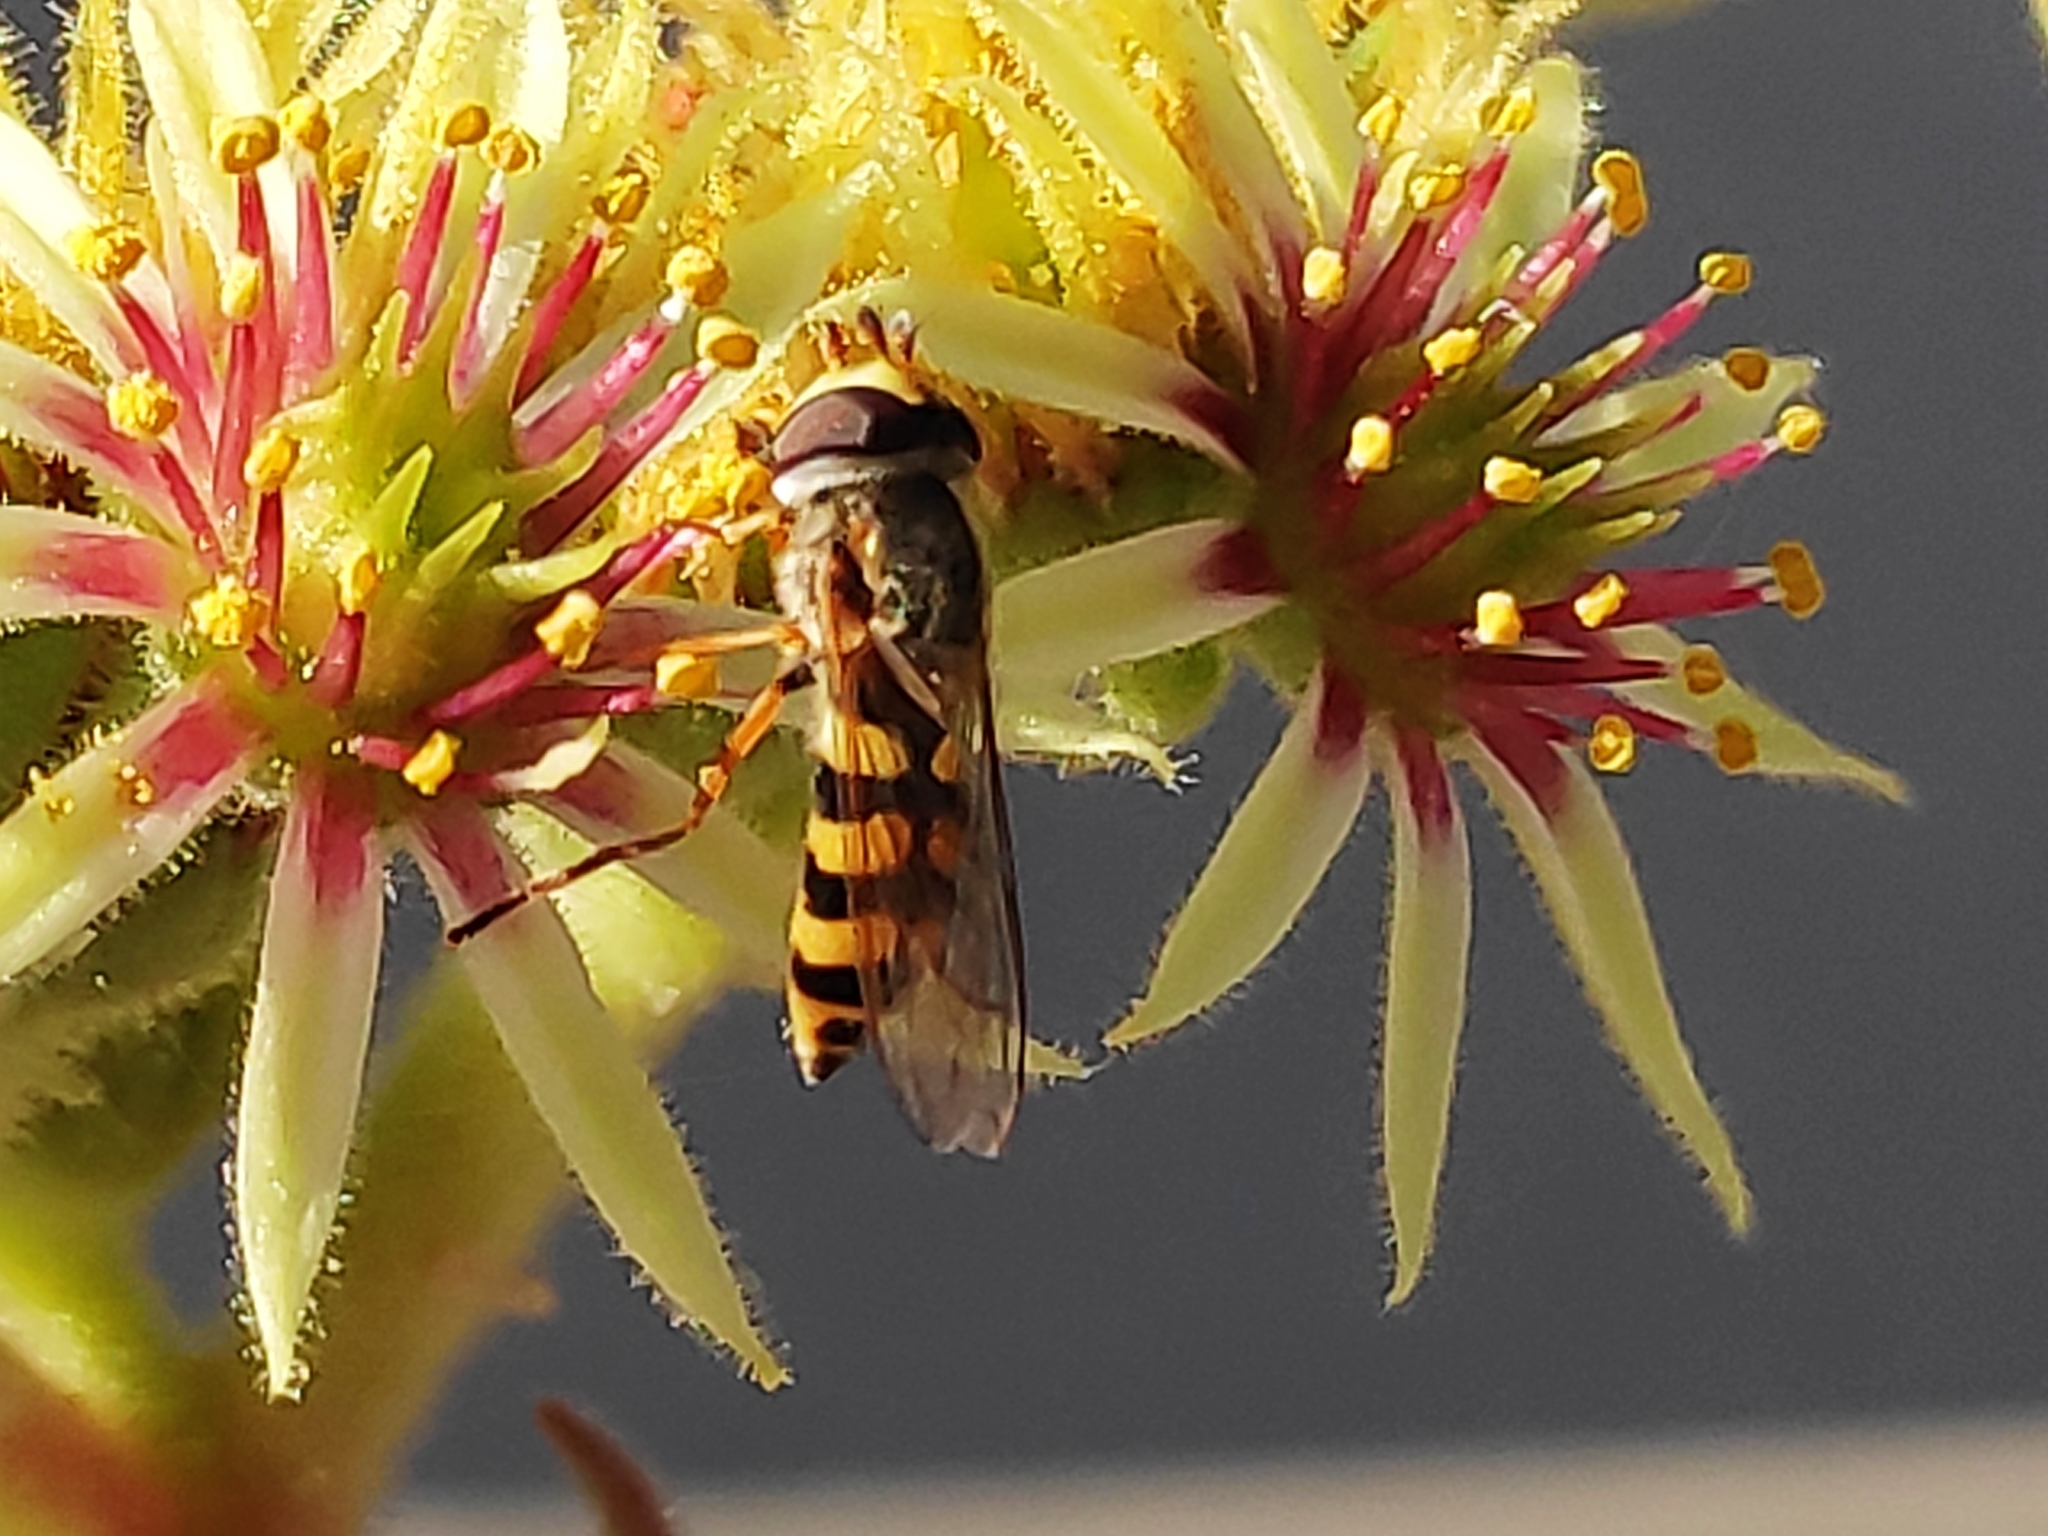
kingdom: Animalia
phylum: Arthropoda
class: Insecta
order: Diptera
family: Syrphidae
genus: Eupeodes
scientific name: Eupeodes corollae
